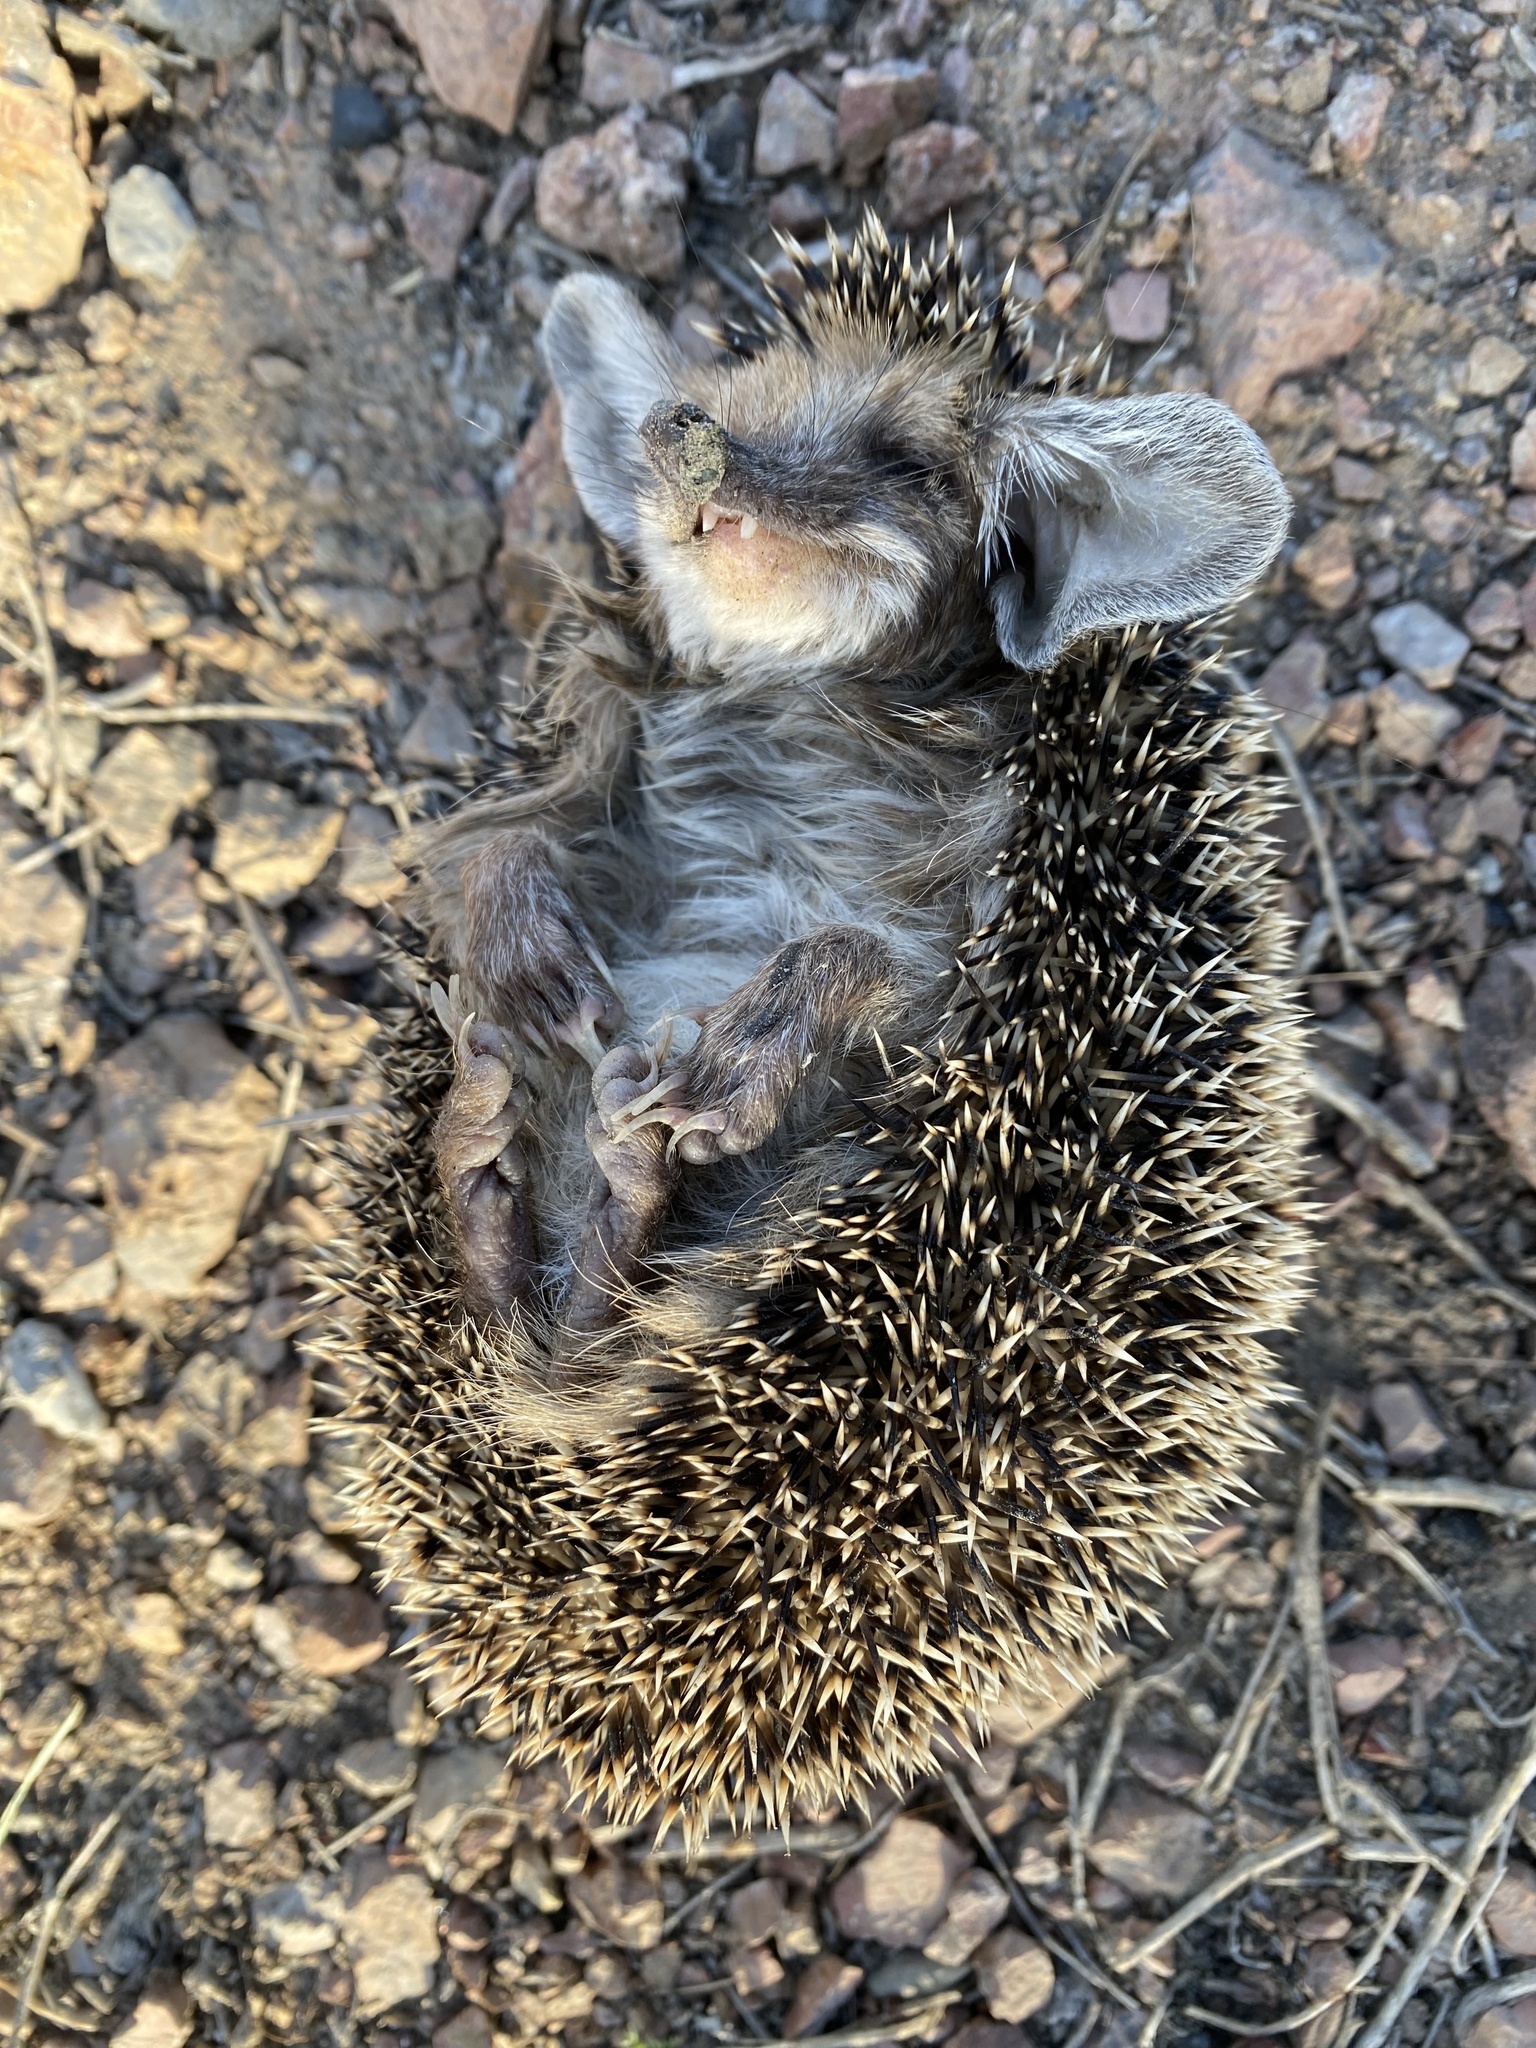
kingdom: Animalia
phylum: Chordata
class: Mammalia
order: Erinaceomorpha
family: Erinaceidae
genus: Hemiechinus
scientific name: Hemiechinus auritus
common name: Long-eared hedgehog
